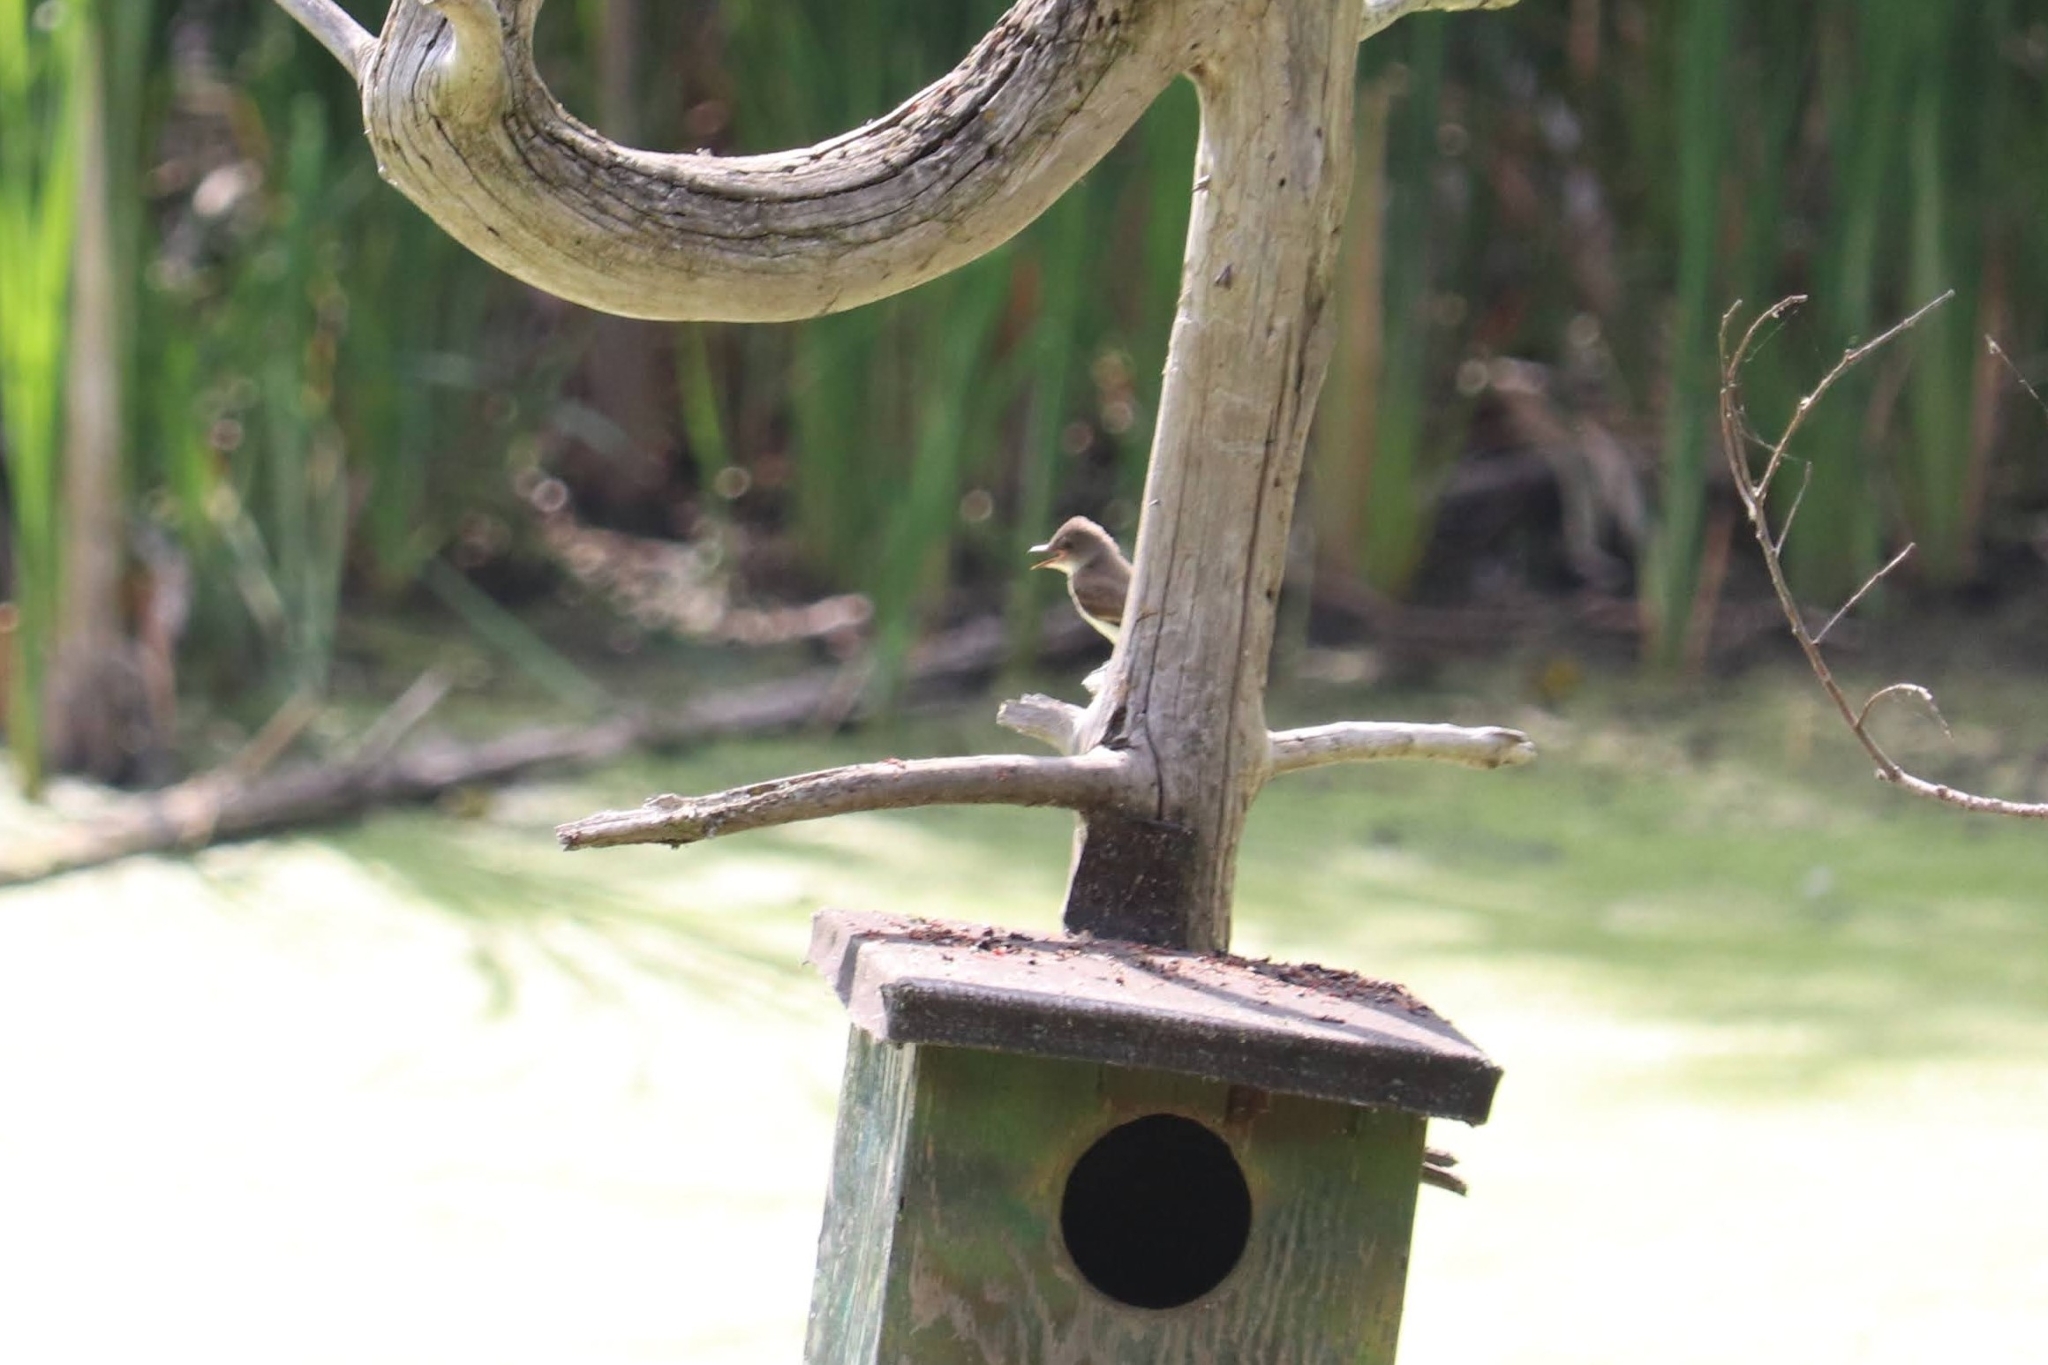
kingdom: Animalia
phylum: Chordata
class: Aves
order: Passeriformes
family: Tyrannidae
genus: Sayornis
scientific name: Sayornis phoebe
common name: Eastern phoebe
